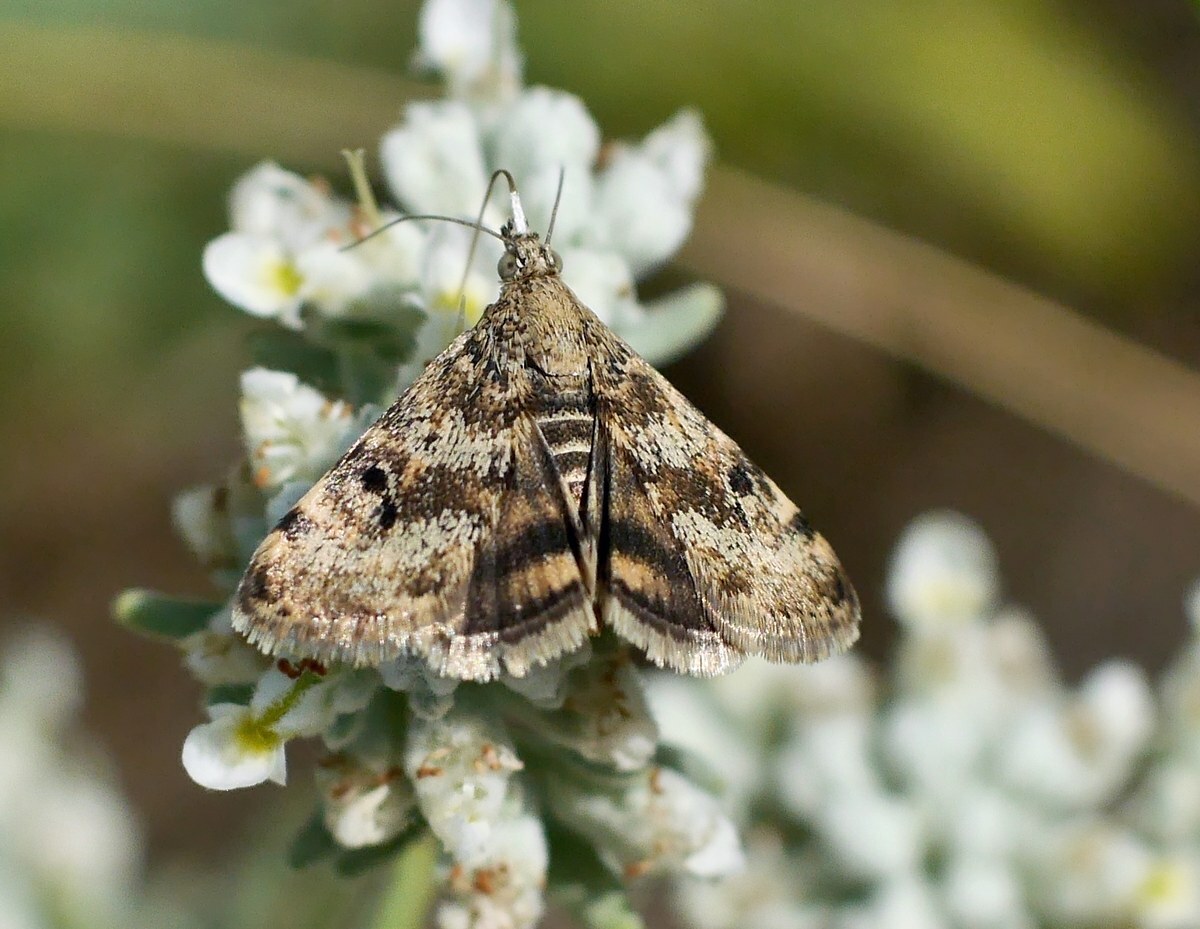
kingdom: Animalia
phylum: Arthropoda
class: Insecta
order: Lepidoptera
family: Crambidae
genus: Noctuelia
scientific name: Noctuelia Aporodes floralis
